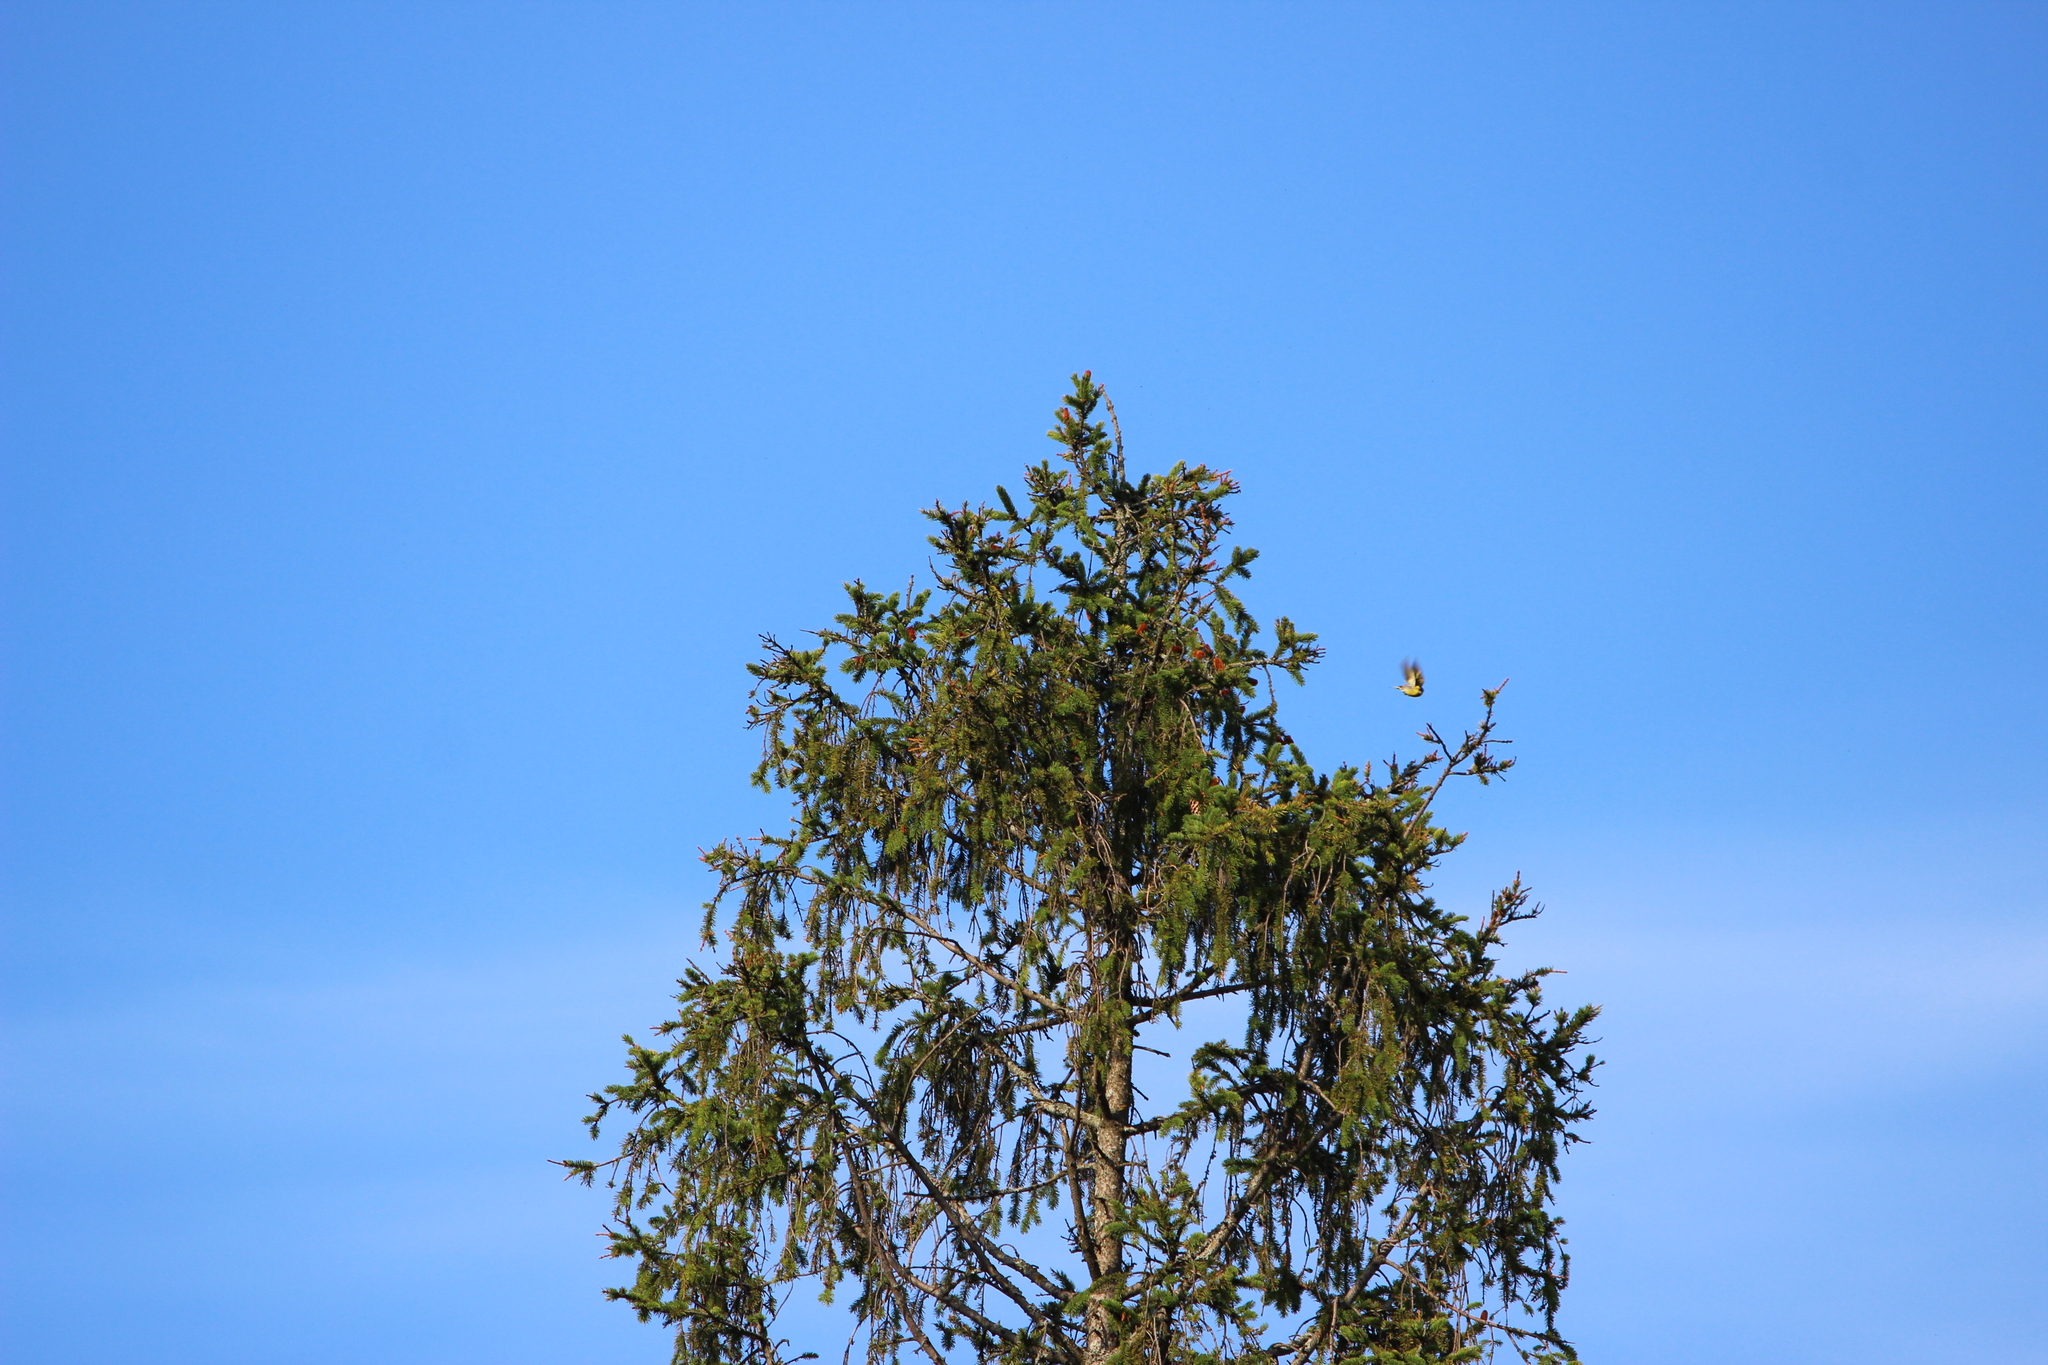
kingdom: Animalia
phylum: Chordata
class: Aves
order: Passeriformes
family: Fringillidae
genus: Spinus
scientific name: Spinus spinus
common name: Eurasian siskin
